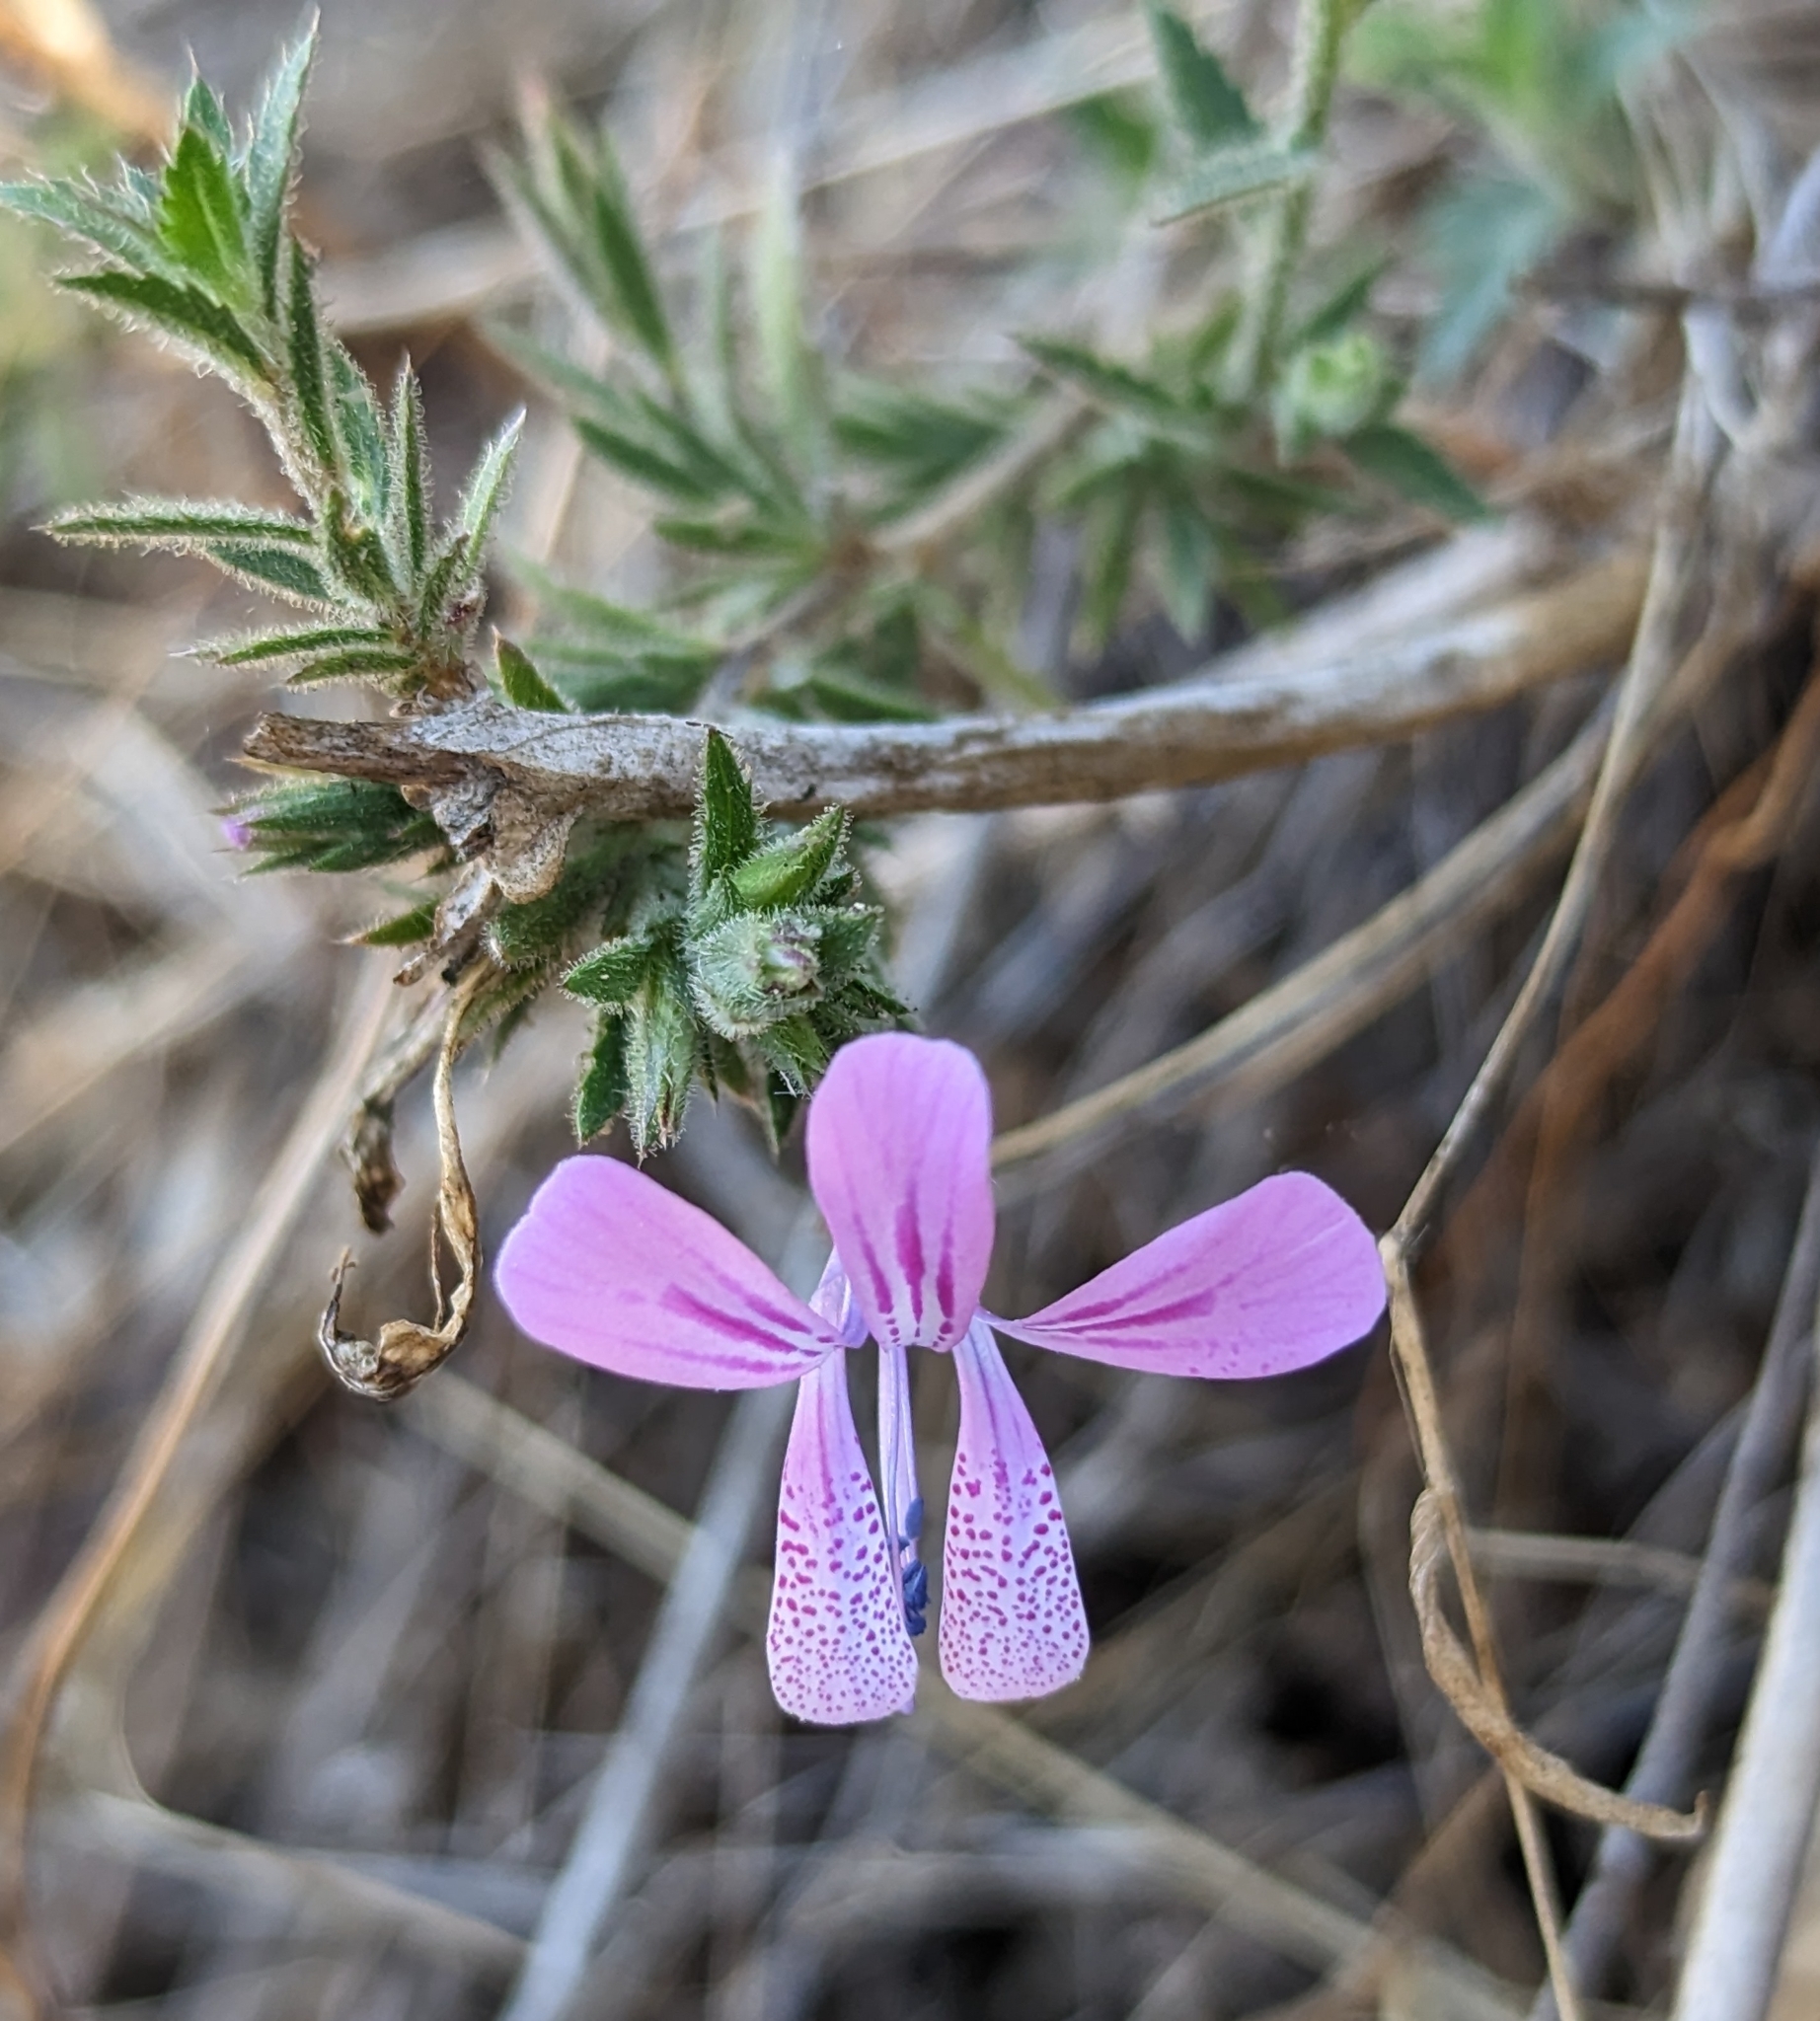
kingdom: Plantae
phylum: Tracheophyta
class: Magnoliopsida
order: Ericales
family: Polemoniaceae
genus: Loeselia
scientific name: Loeselia glandulosa
